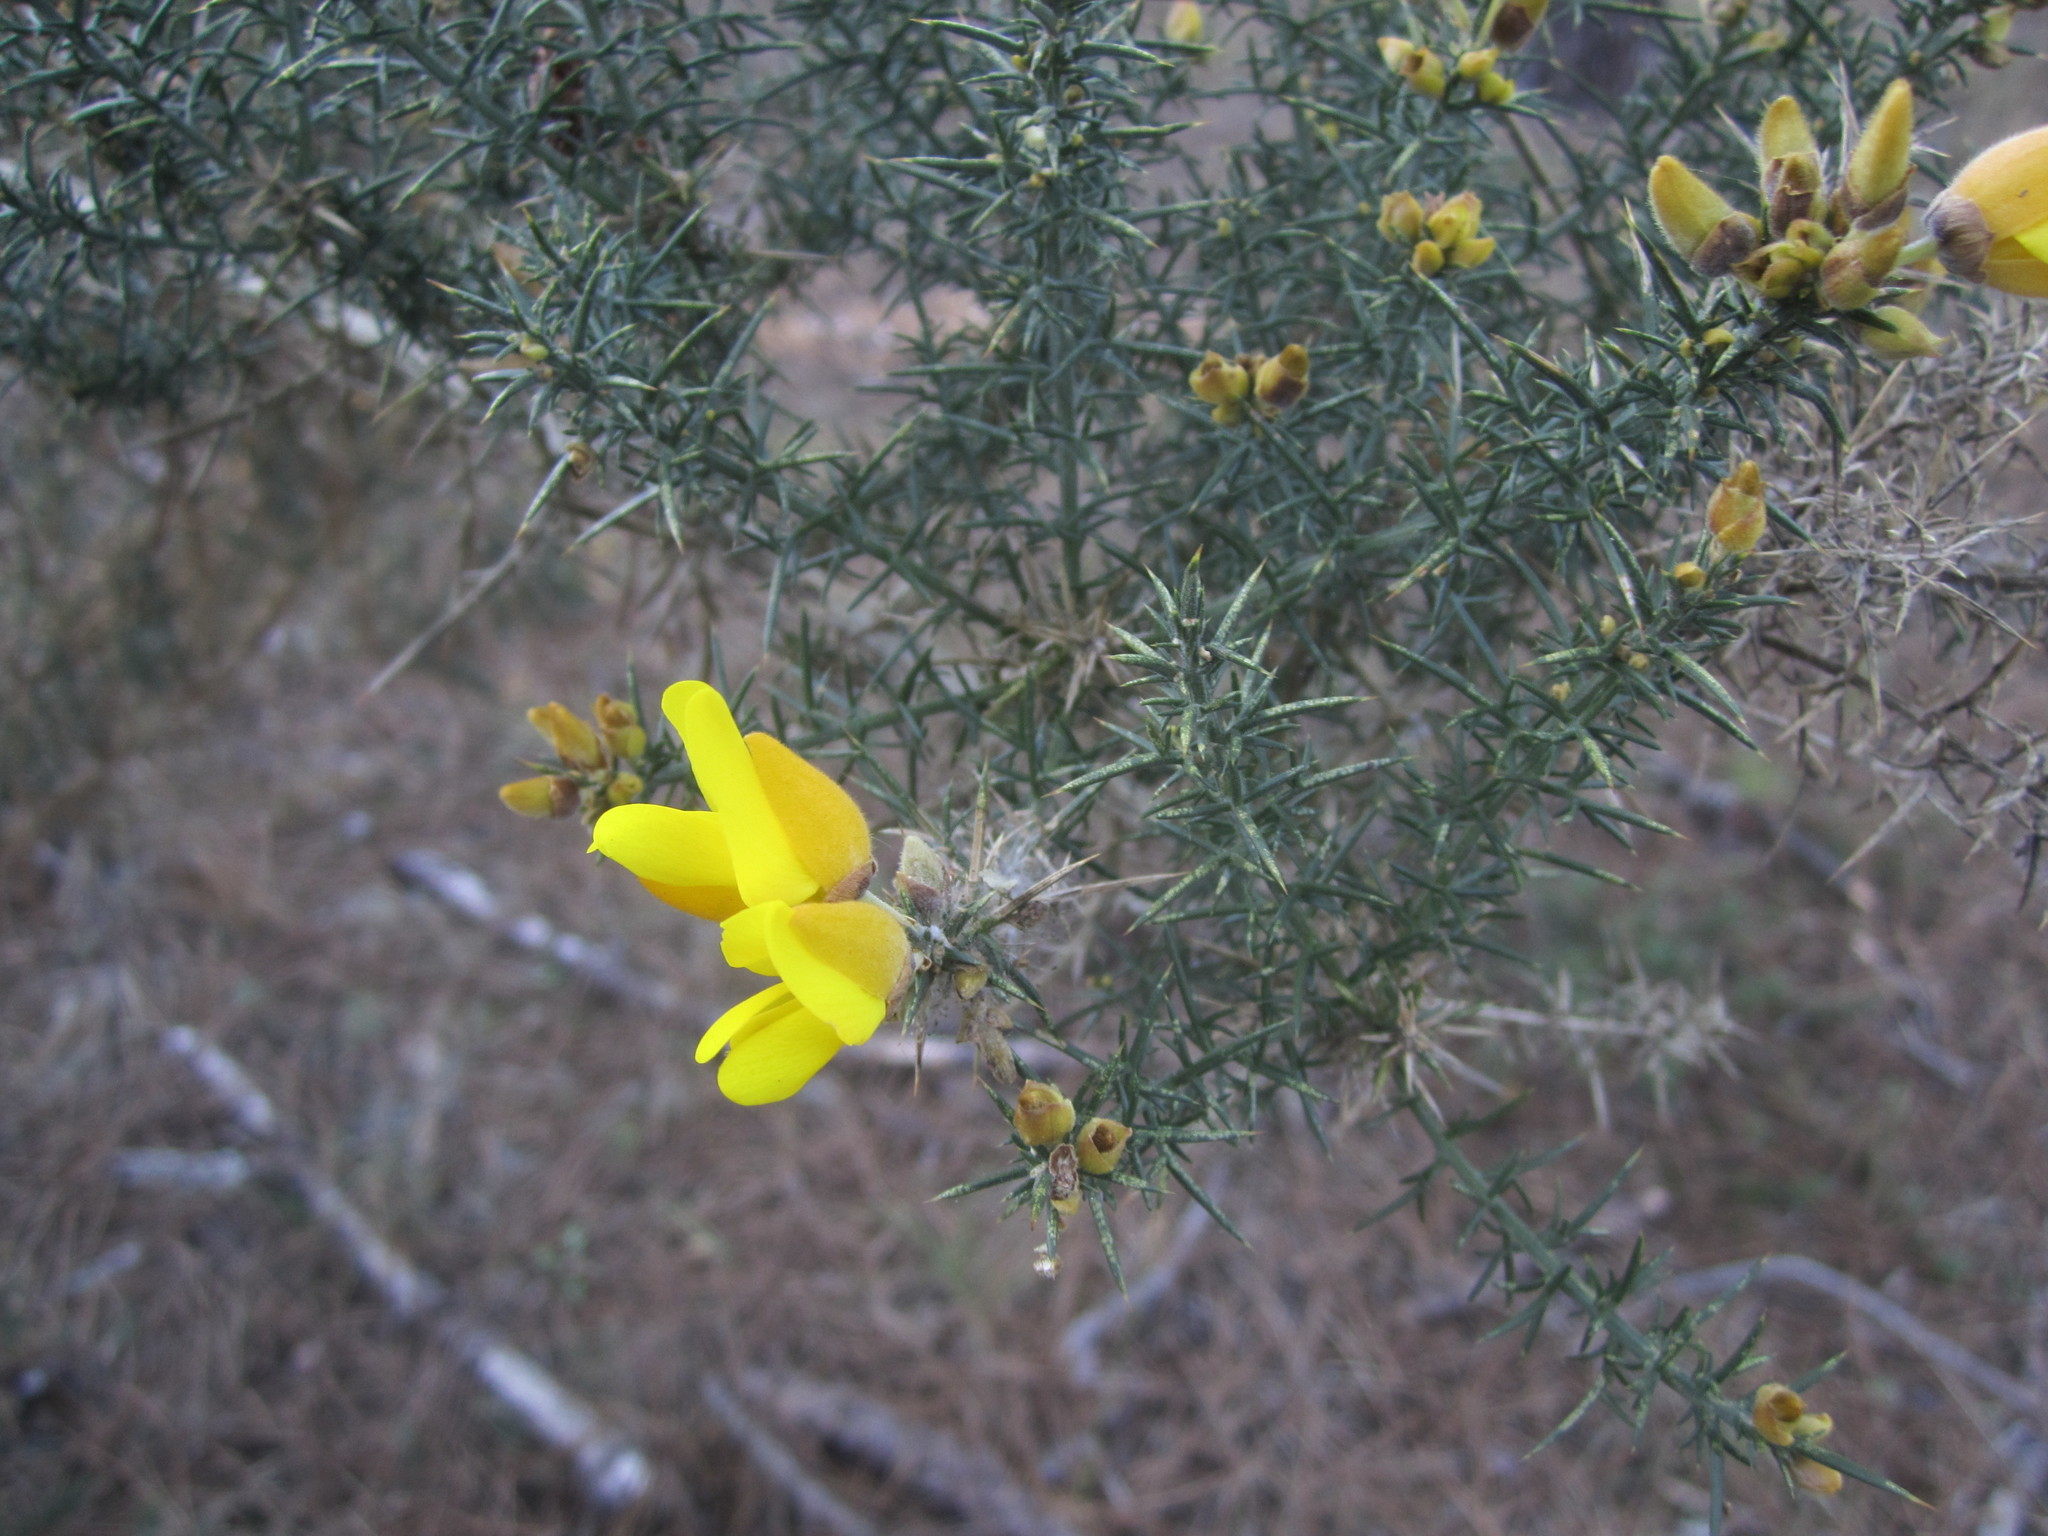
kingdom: Plantae
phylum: Tracheophyta
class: Magnoliopsida
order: Fabales
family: Fabaceae
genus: Ulex
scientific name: Ulex europaeus
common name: Common gorse
